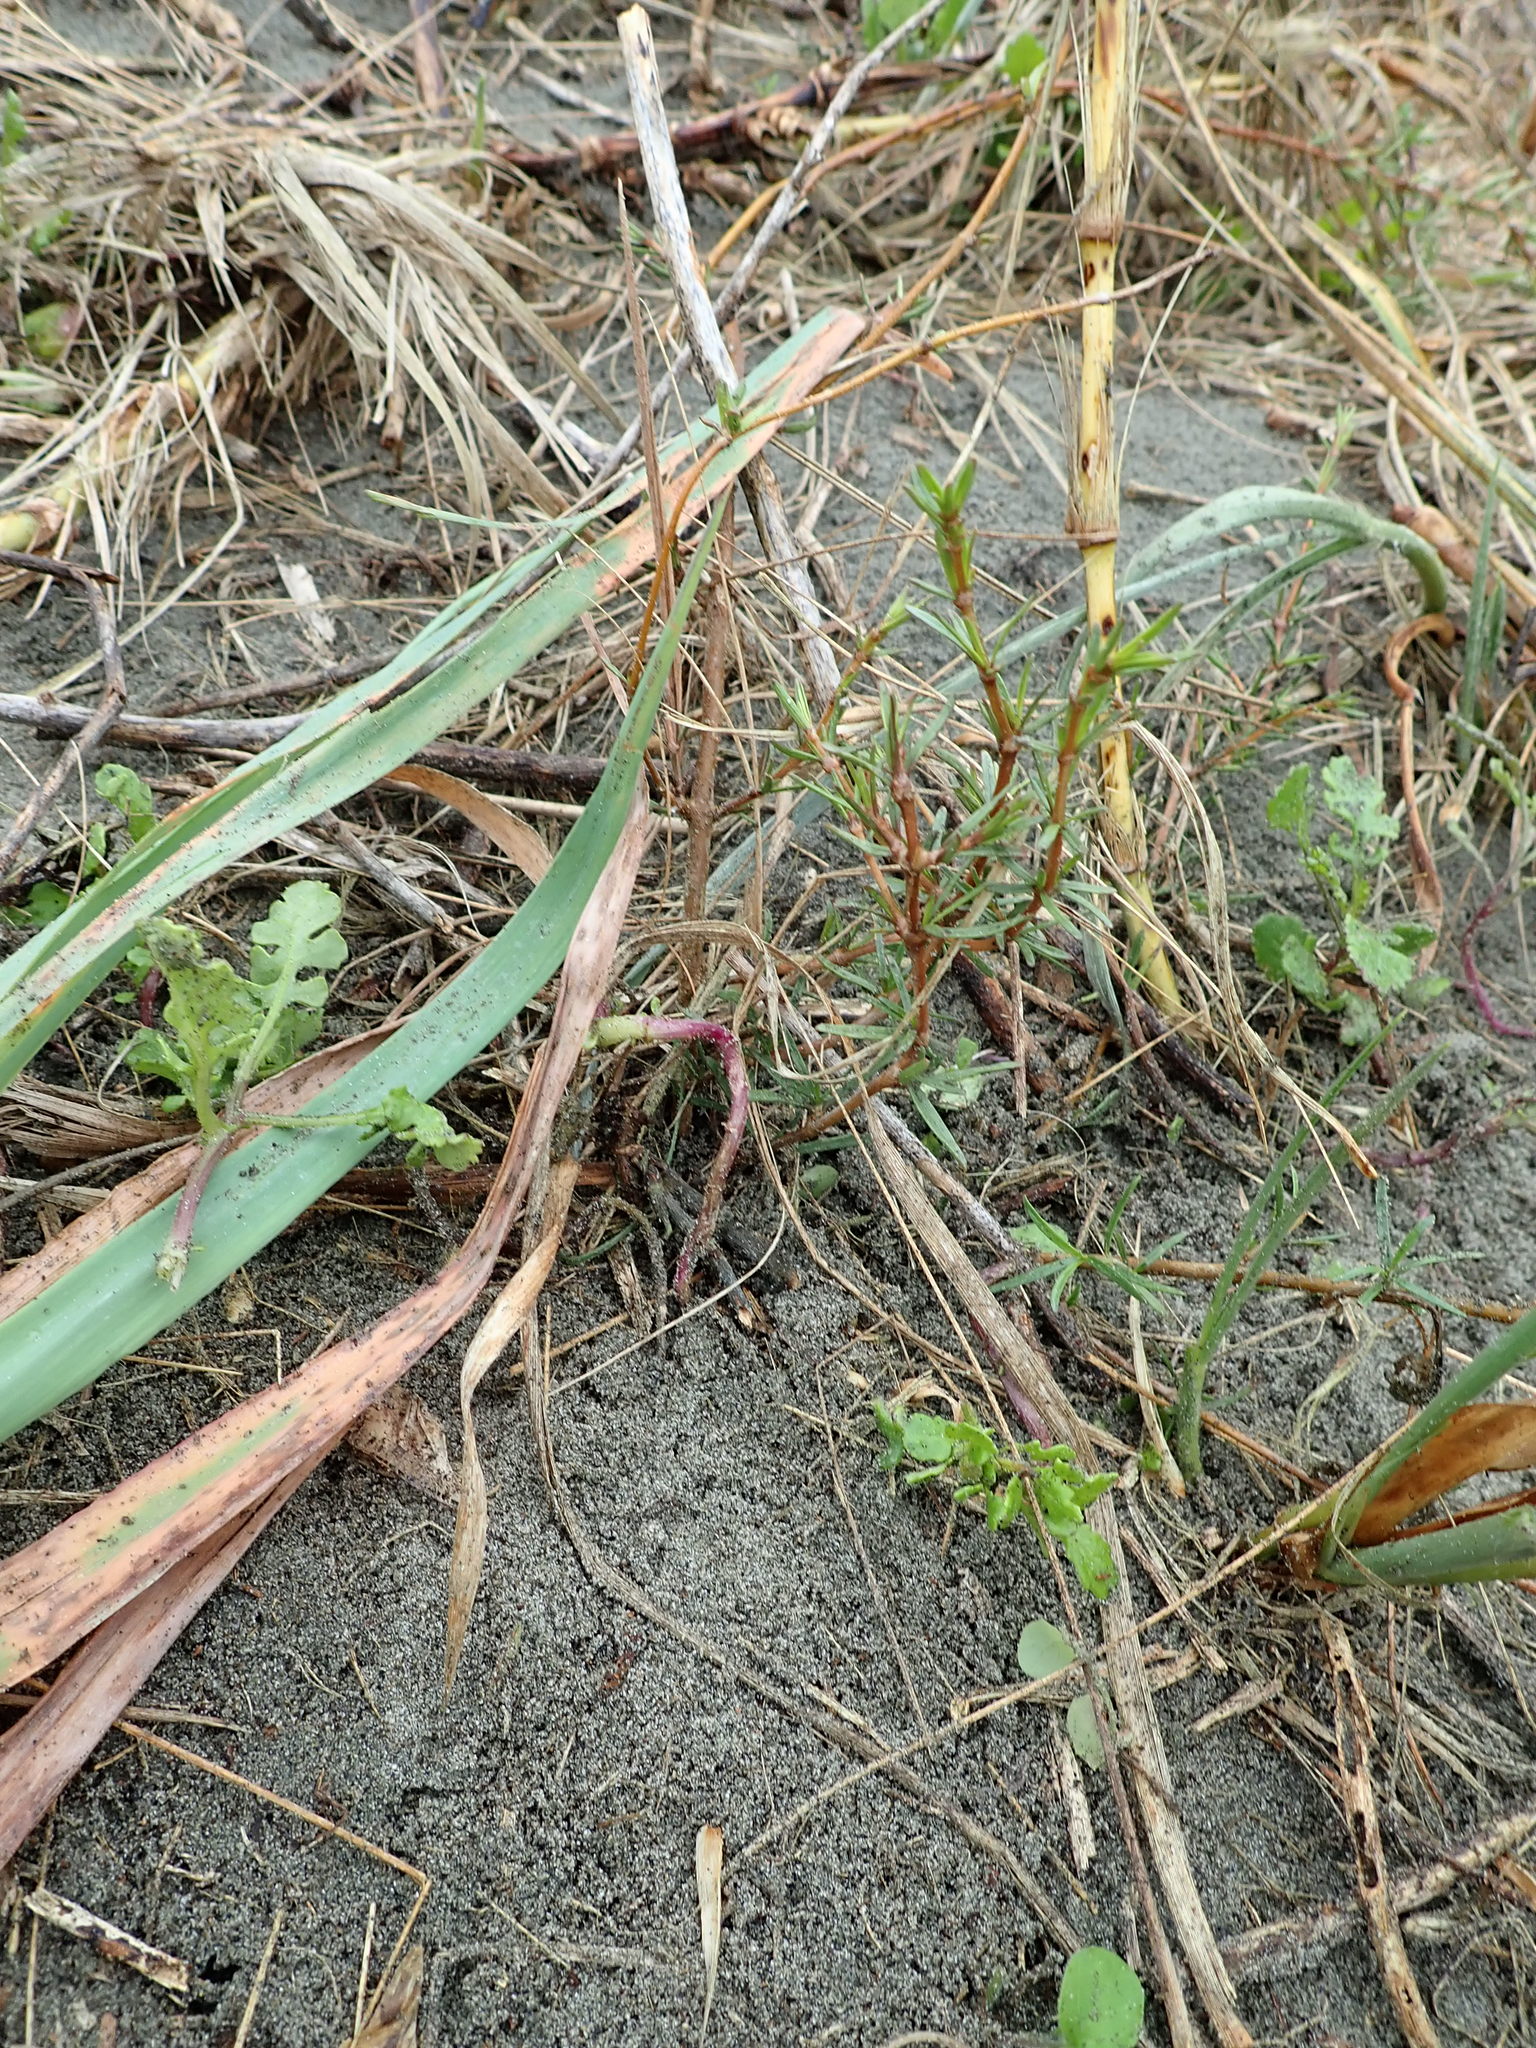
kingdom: Plantae
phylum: Tracheophyta
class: Magnoliopsida
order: Gentianales
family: Rubiaceae
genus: Coprosma
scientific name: Coprosma acerosa
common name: Sand coprosma
